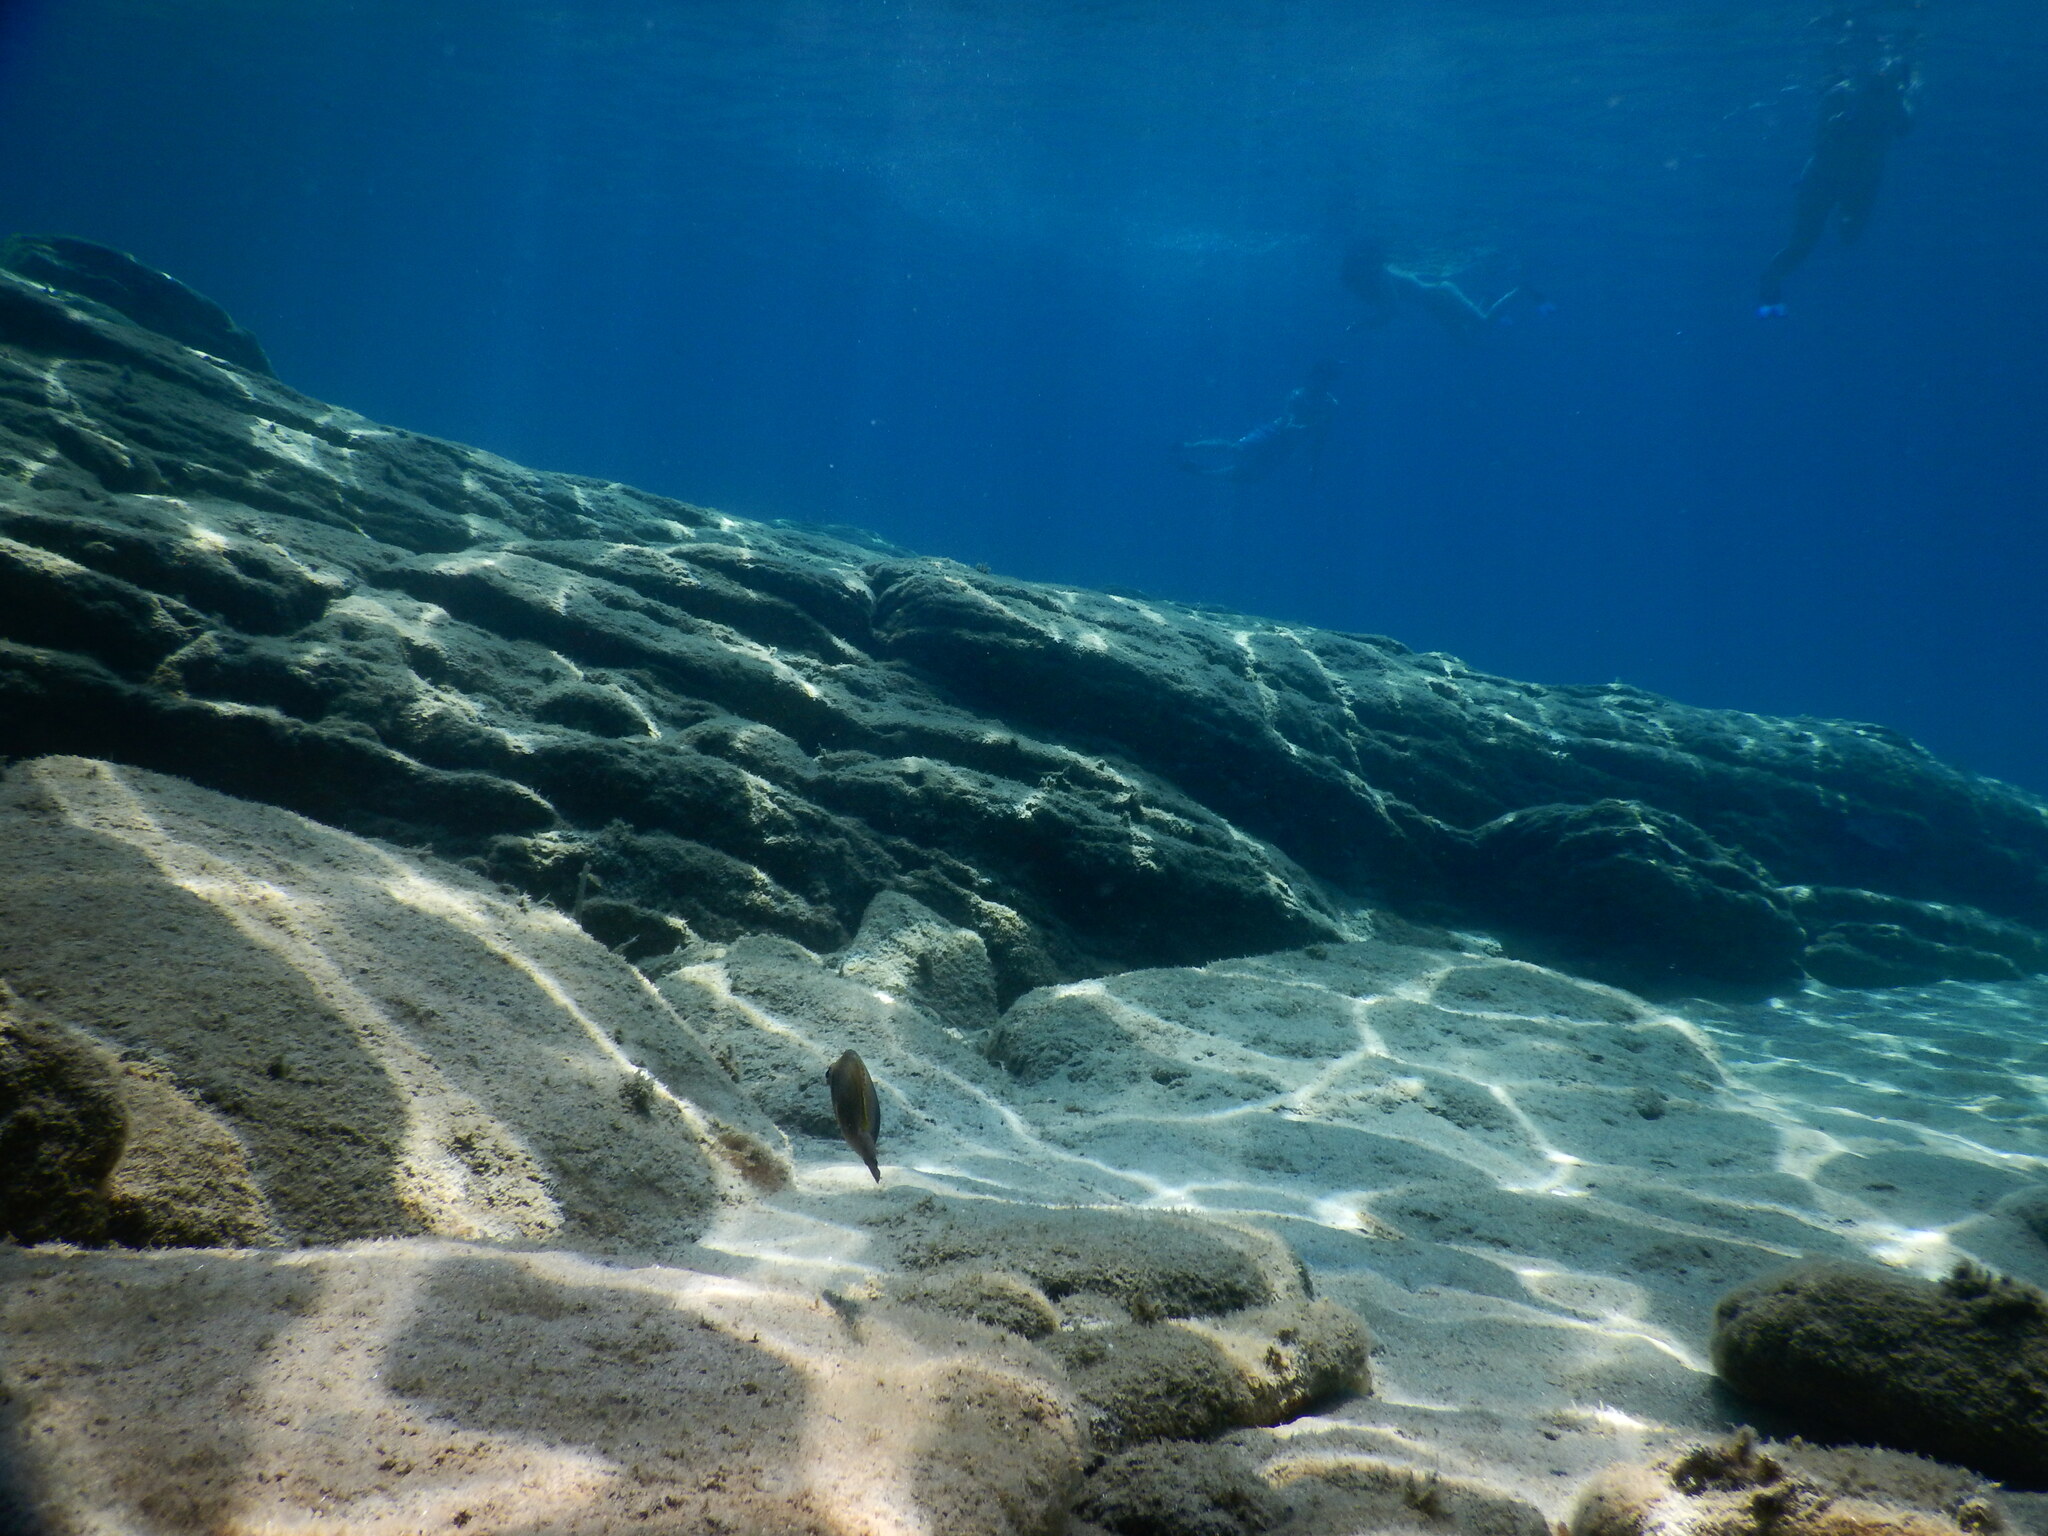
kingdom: Animalia
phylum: Chordata
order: Perciformes
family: Siganidae
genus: Siganus
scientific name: Siganus luridus
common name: Dusky spinefoot
